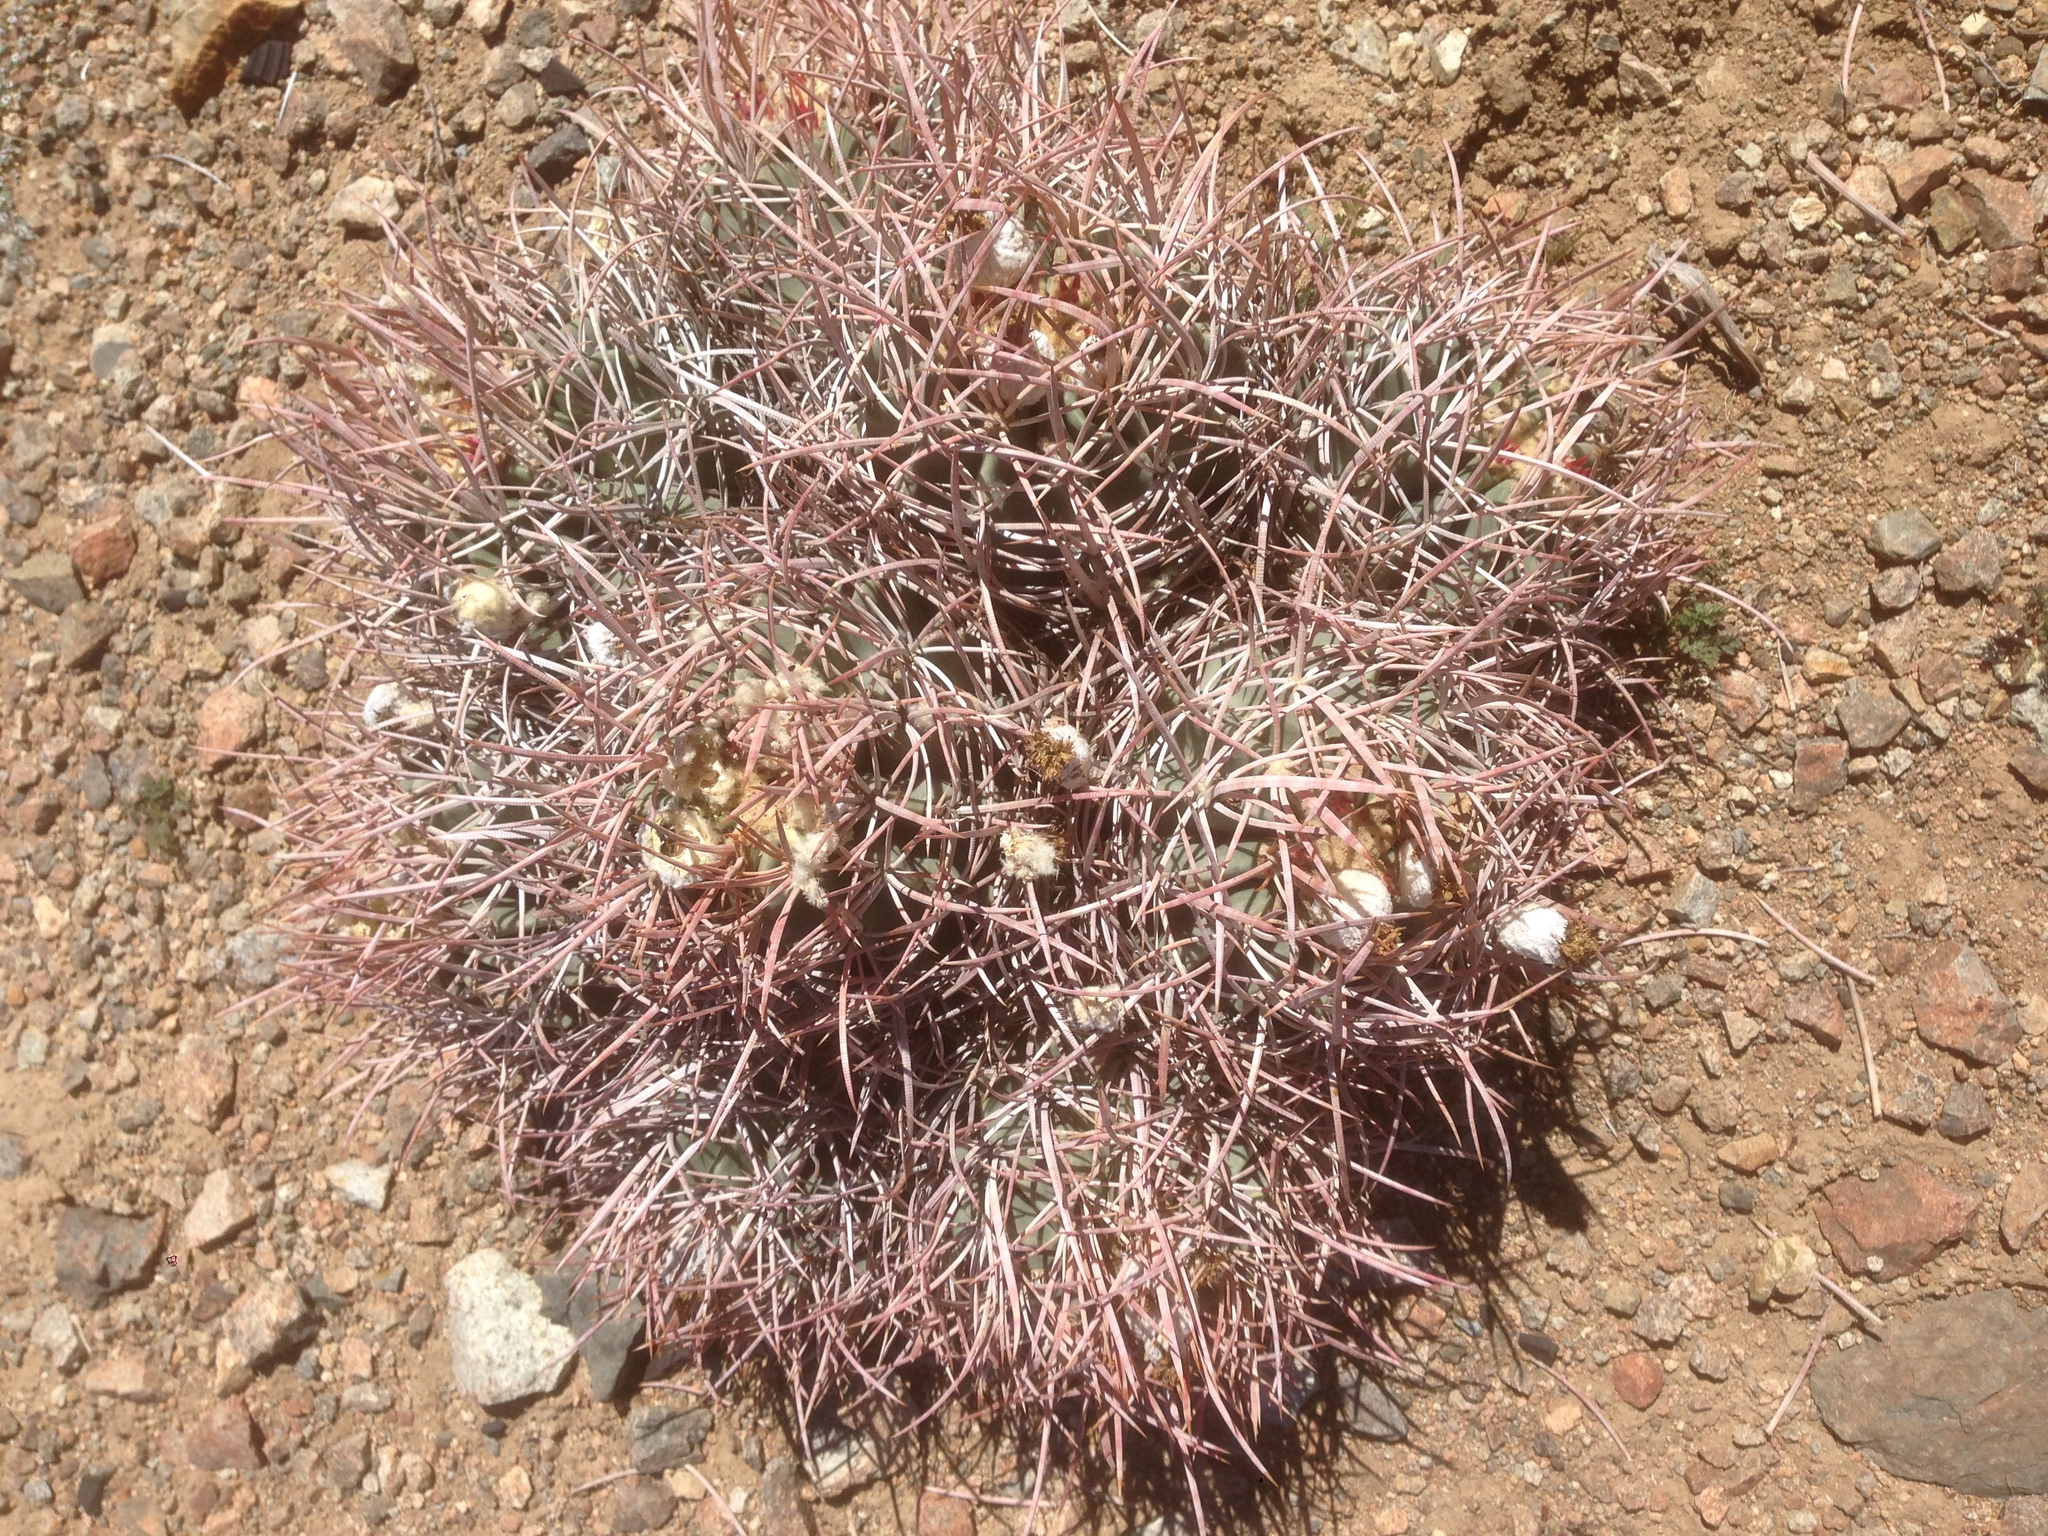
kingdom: Plantae
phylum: Tracheophyta
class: Magnoliopsida
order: Caryophyllales
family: Cactaceae
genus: Echinocactus
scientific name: Echinocactus polycephalus
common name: Cottontop cactus
